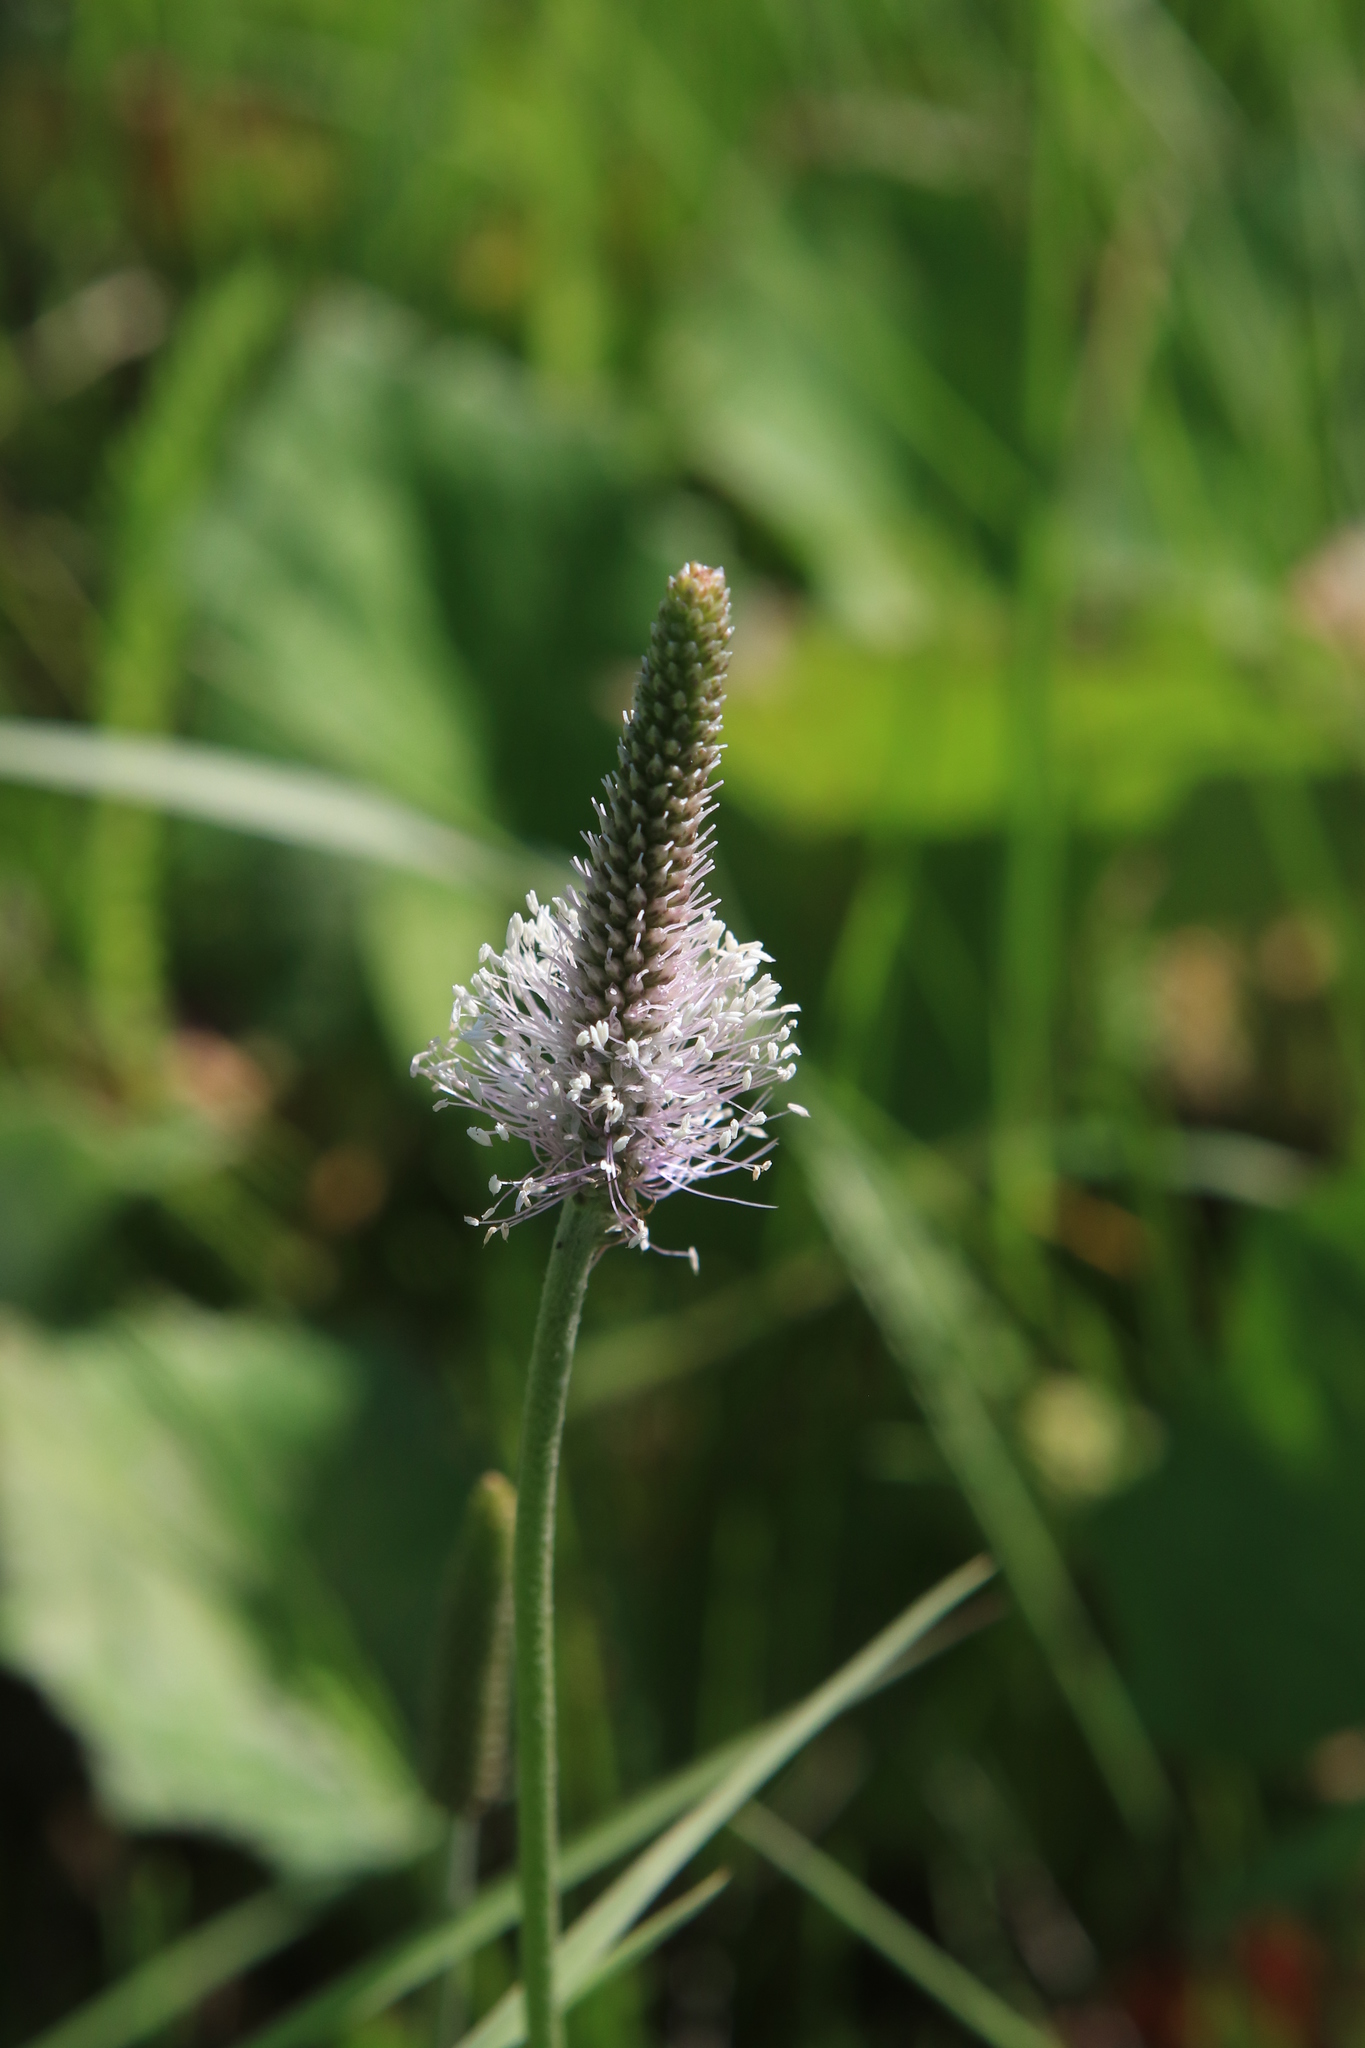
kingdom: Plantae
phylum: Tracheophyta
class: Magnoliopsida
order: Lamiales
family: Plantaginaceae
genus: Plantago
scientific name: Plantago media
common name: Hoary plantain
